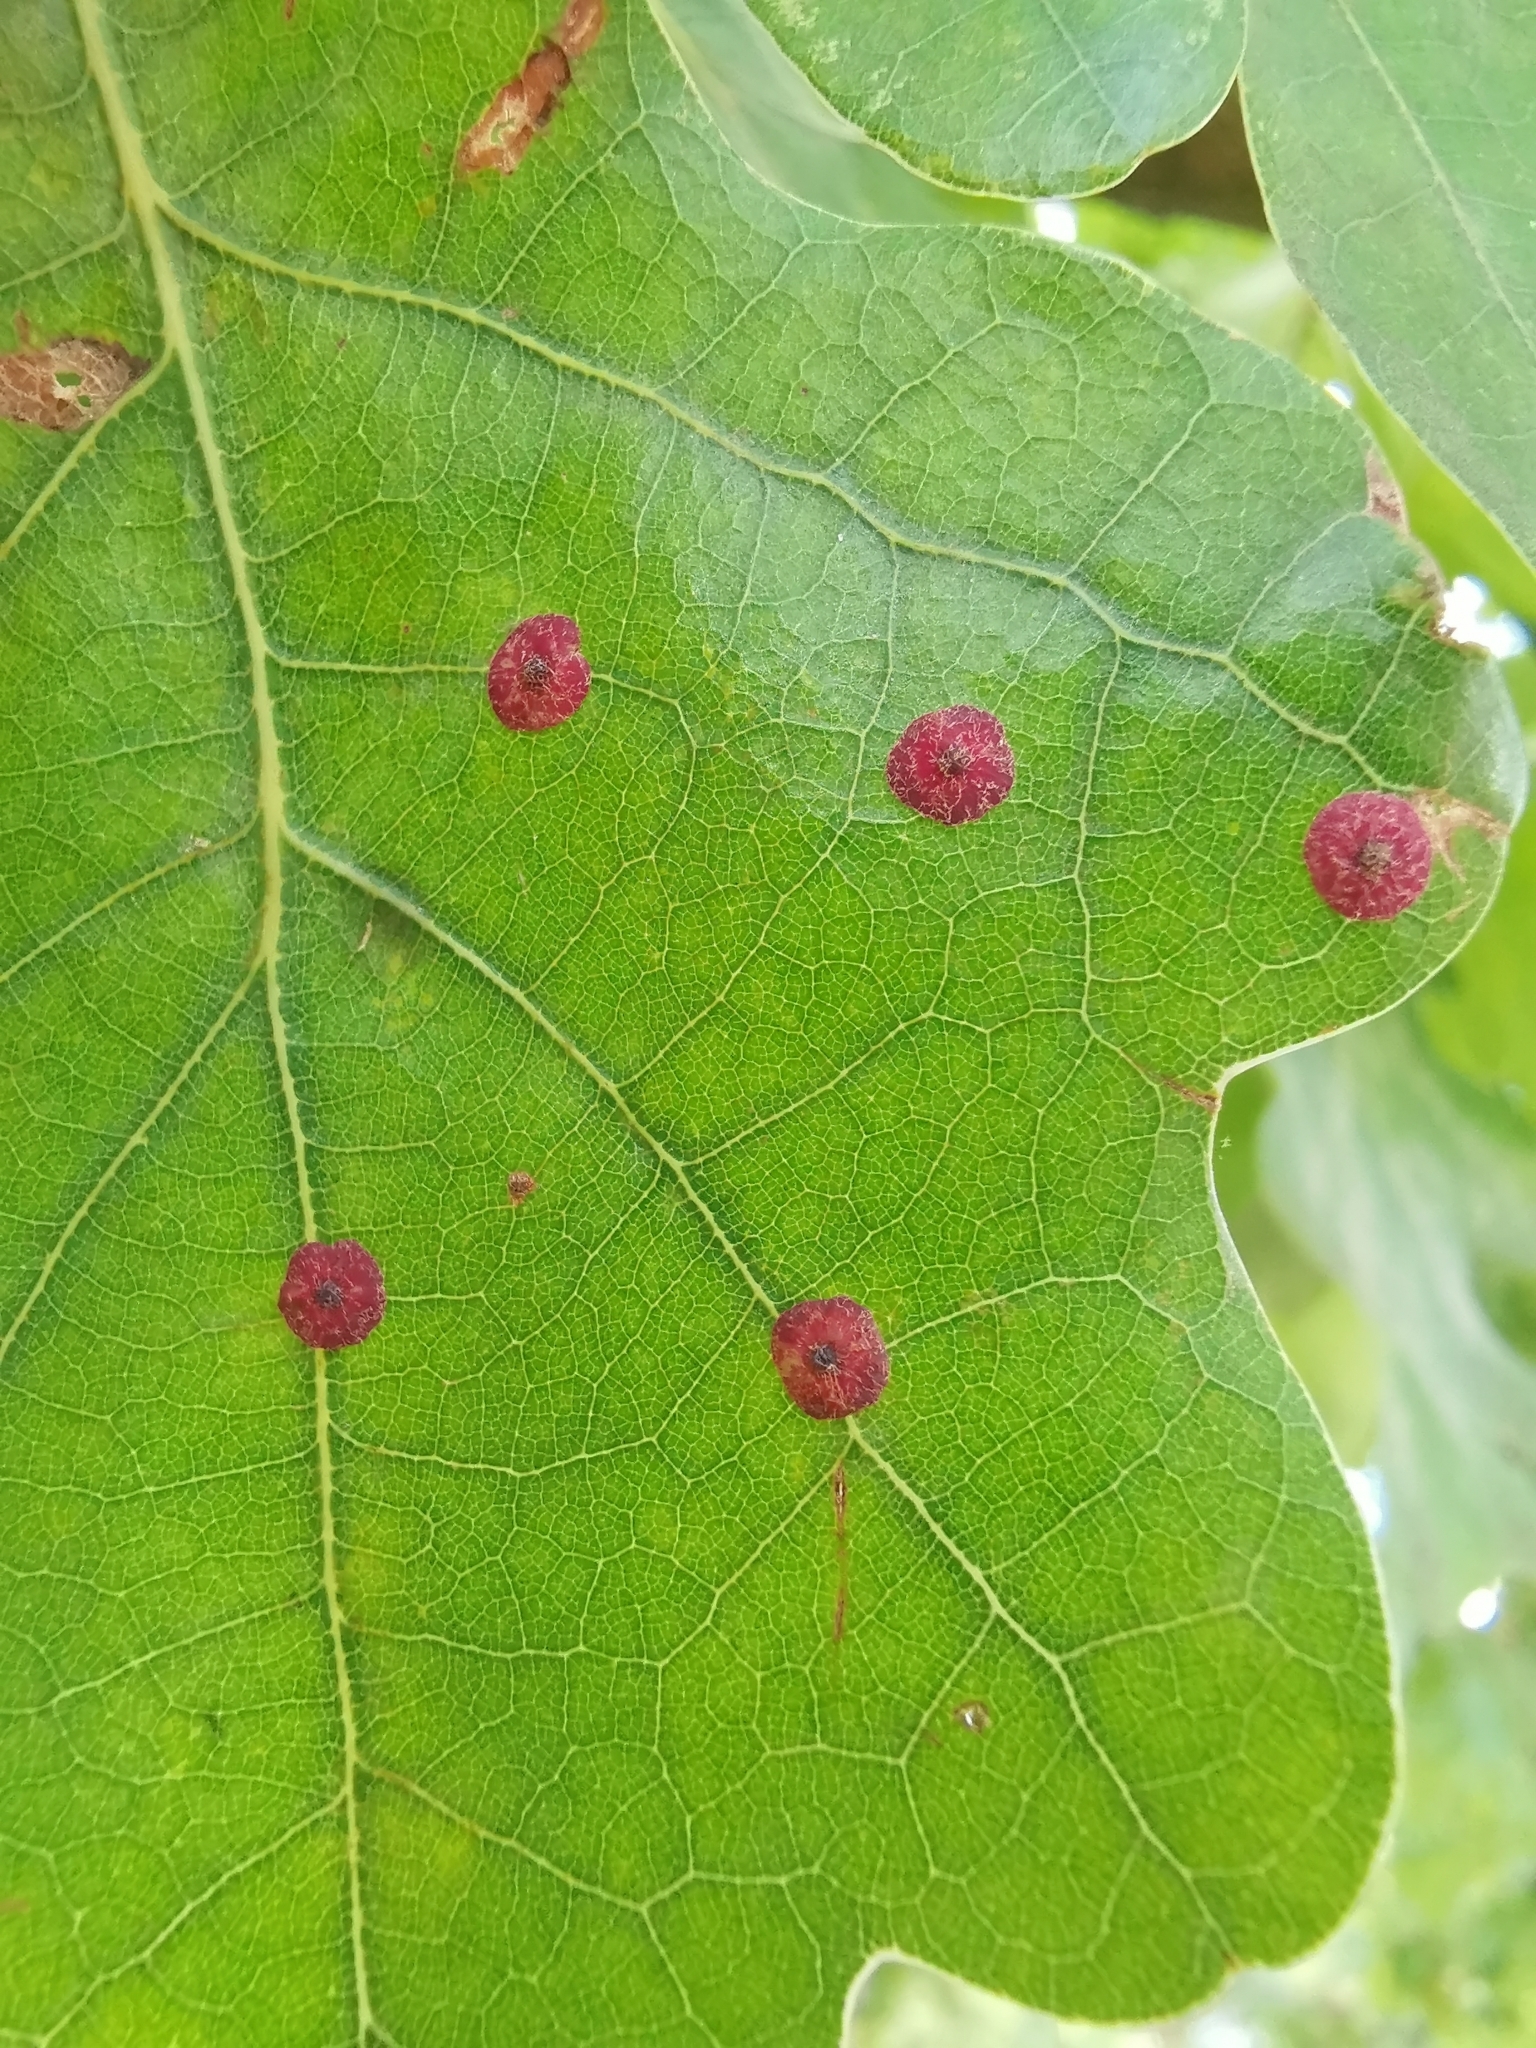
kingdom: Animalia
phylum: Arthropoda
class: Insecta
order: Hymenoptera
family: Cynipidae
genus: Neuroterus
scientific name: Neuroterus quercusbaccarum
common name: Common spangle gall
